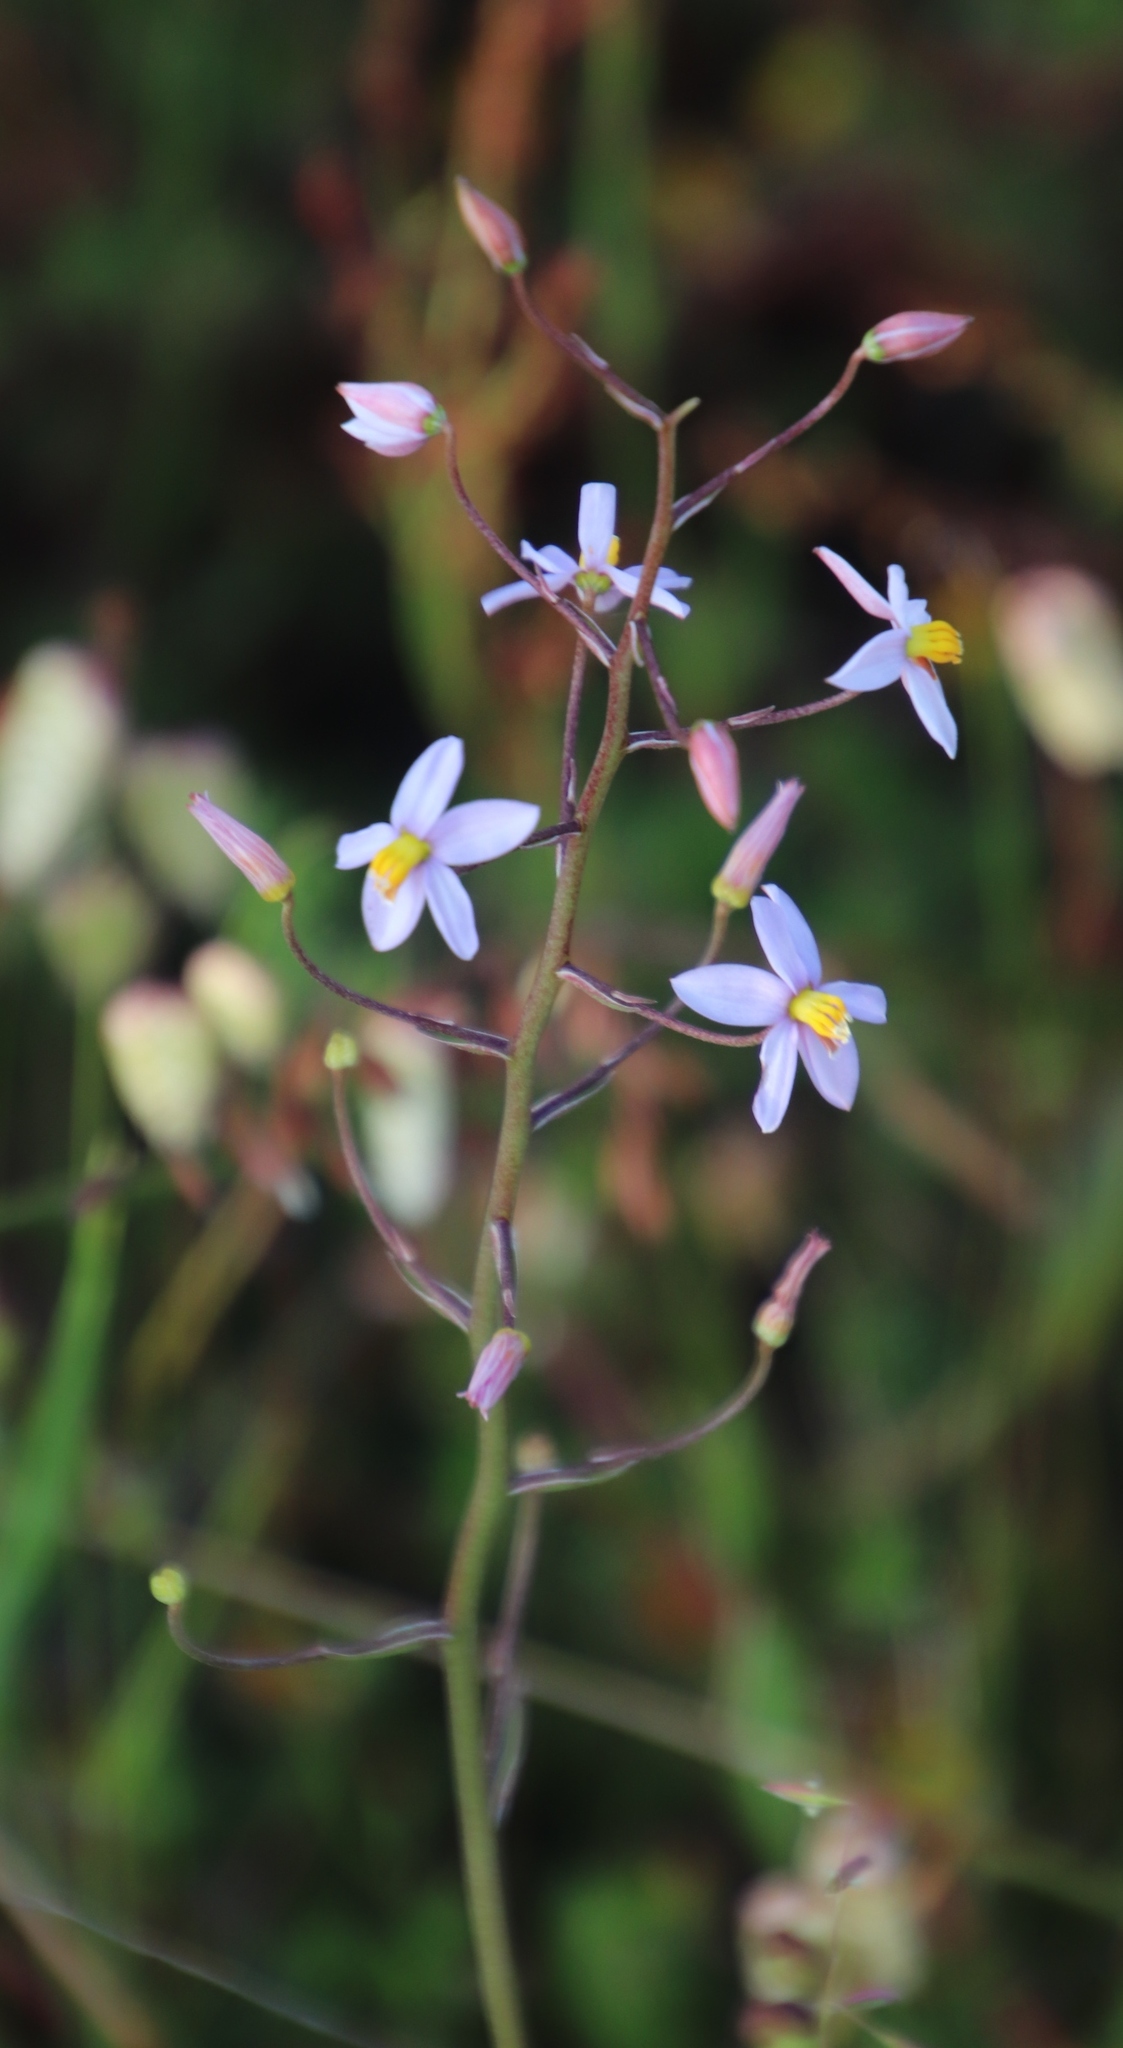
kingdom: Plantae
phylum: Tracheophyta
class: Liliopsida
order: Asparagales
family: Tecophilaeaceae
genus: Cyanella
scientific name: Cyanella hyacinthoides
